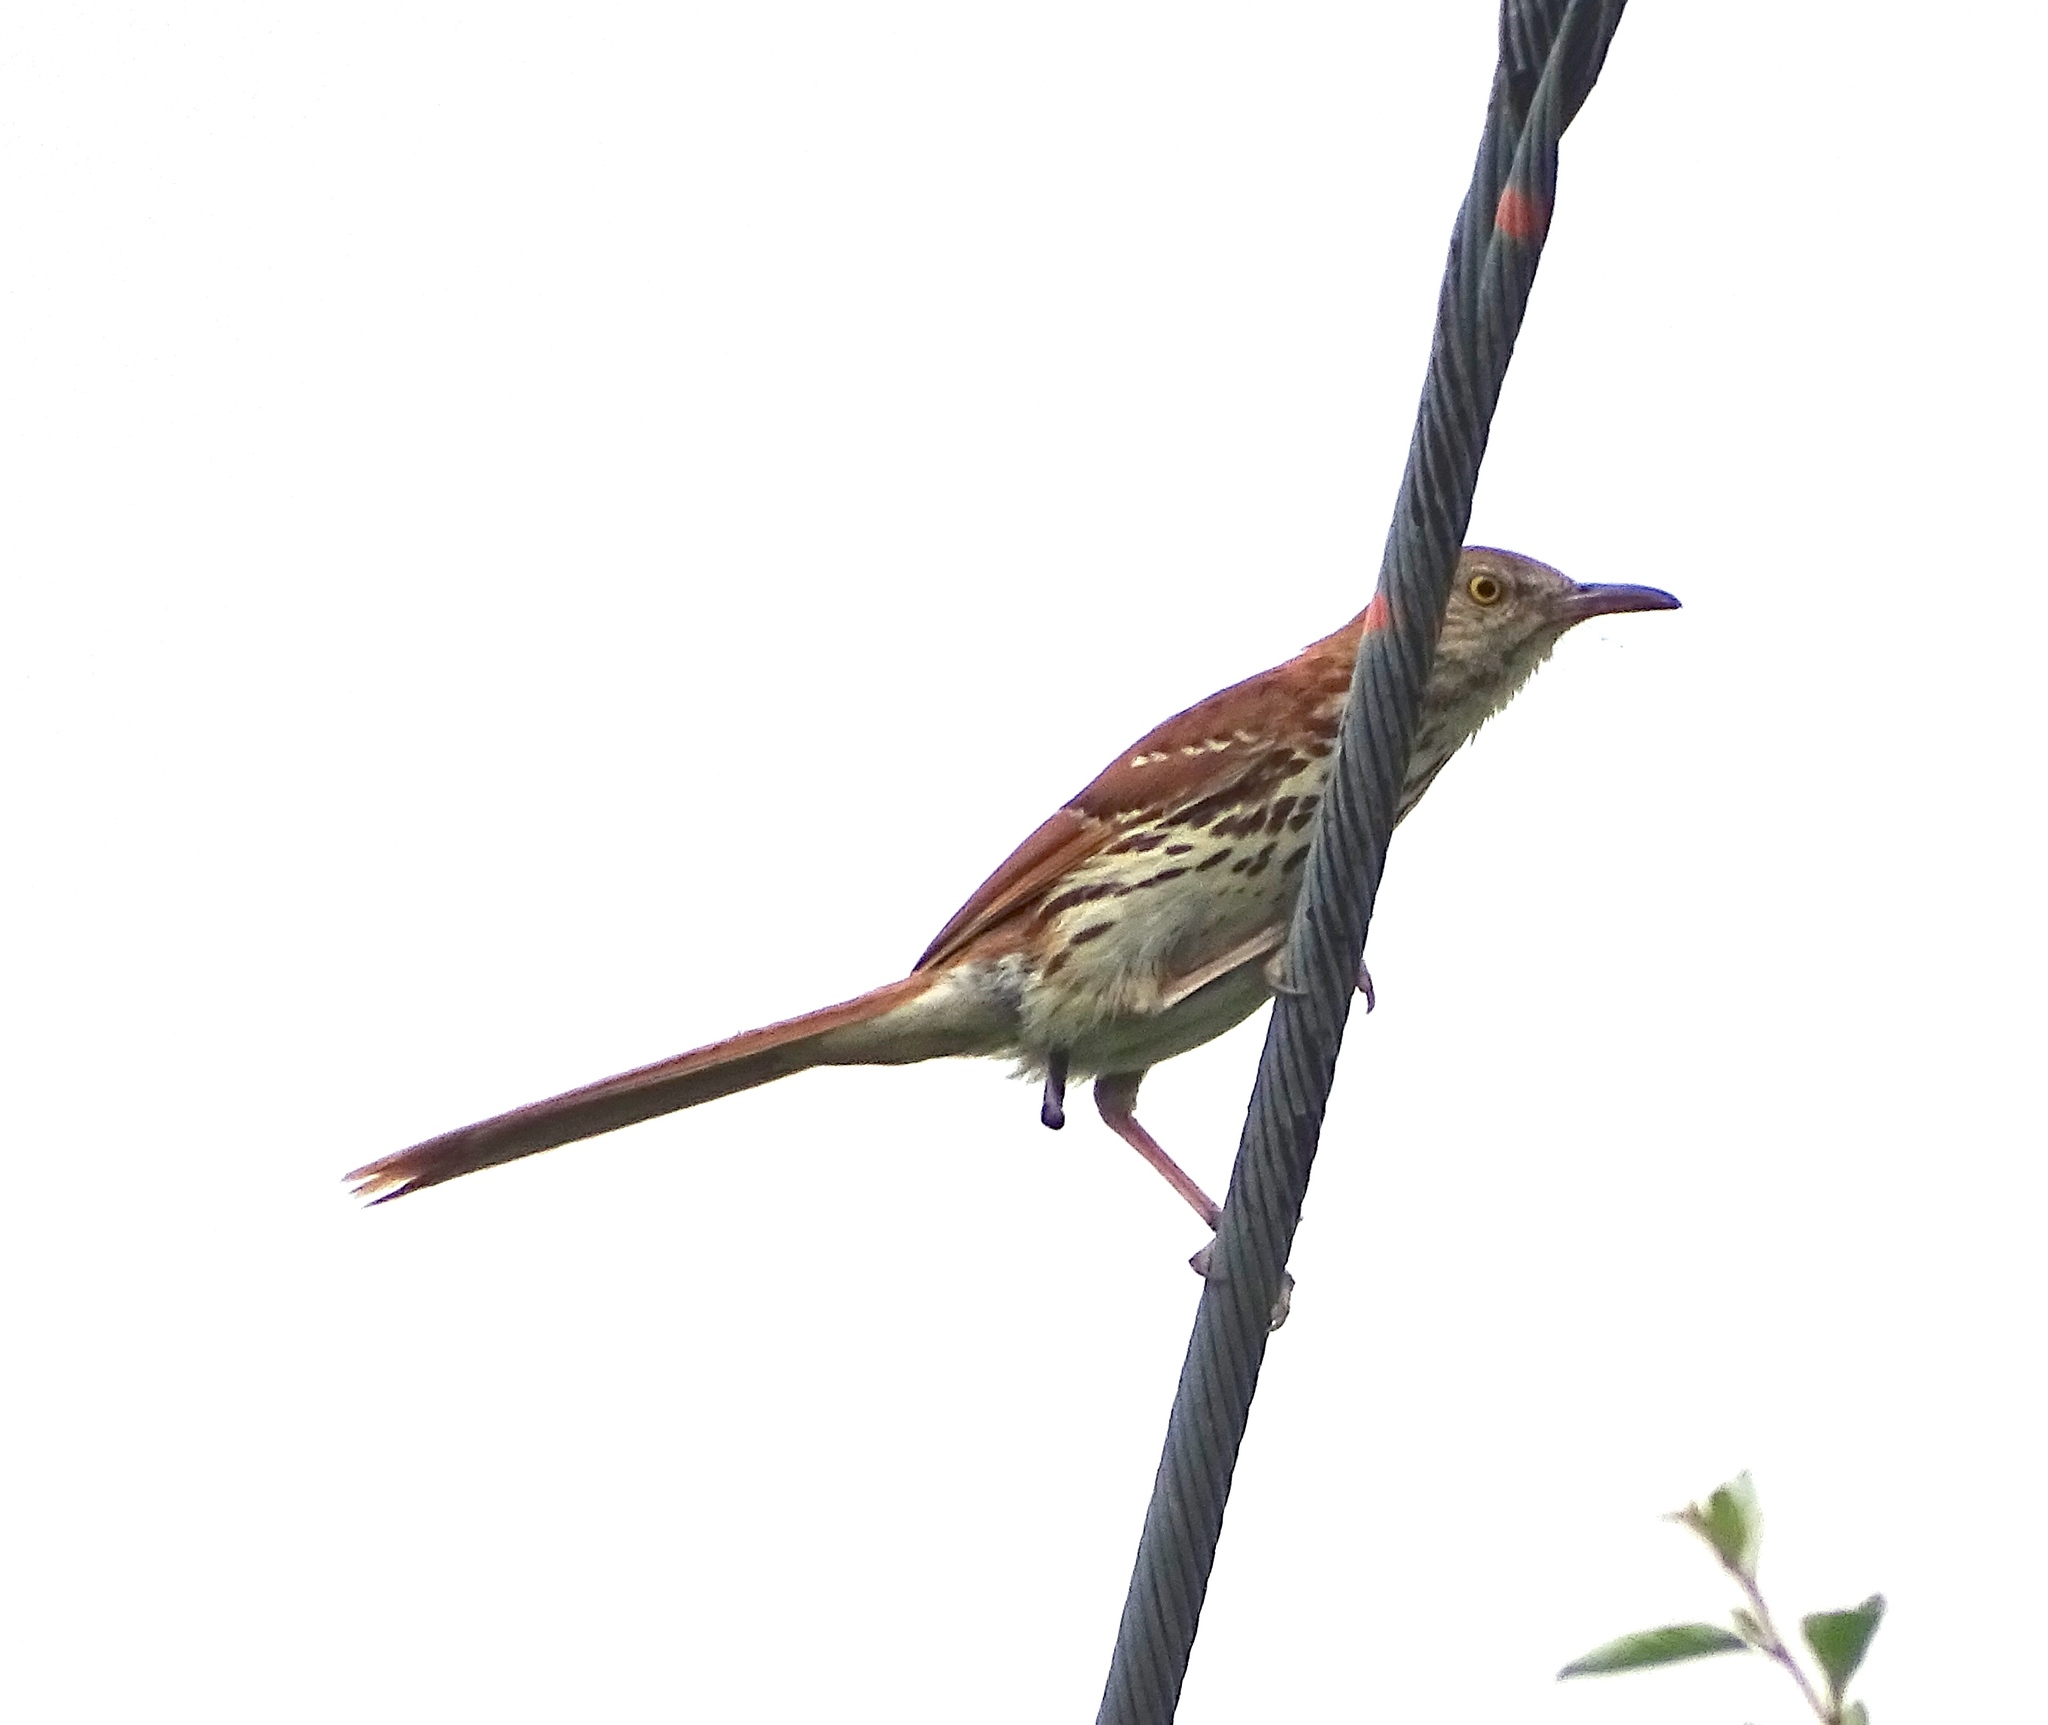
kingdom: Animalia
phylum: Chordata
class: Aves
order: Passeriformes
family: Mimidae
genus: Toxostoma
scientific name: Toxostoma rufum
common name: Brown thrasher
